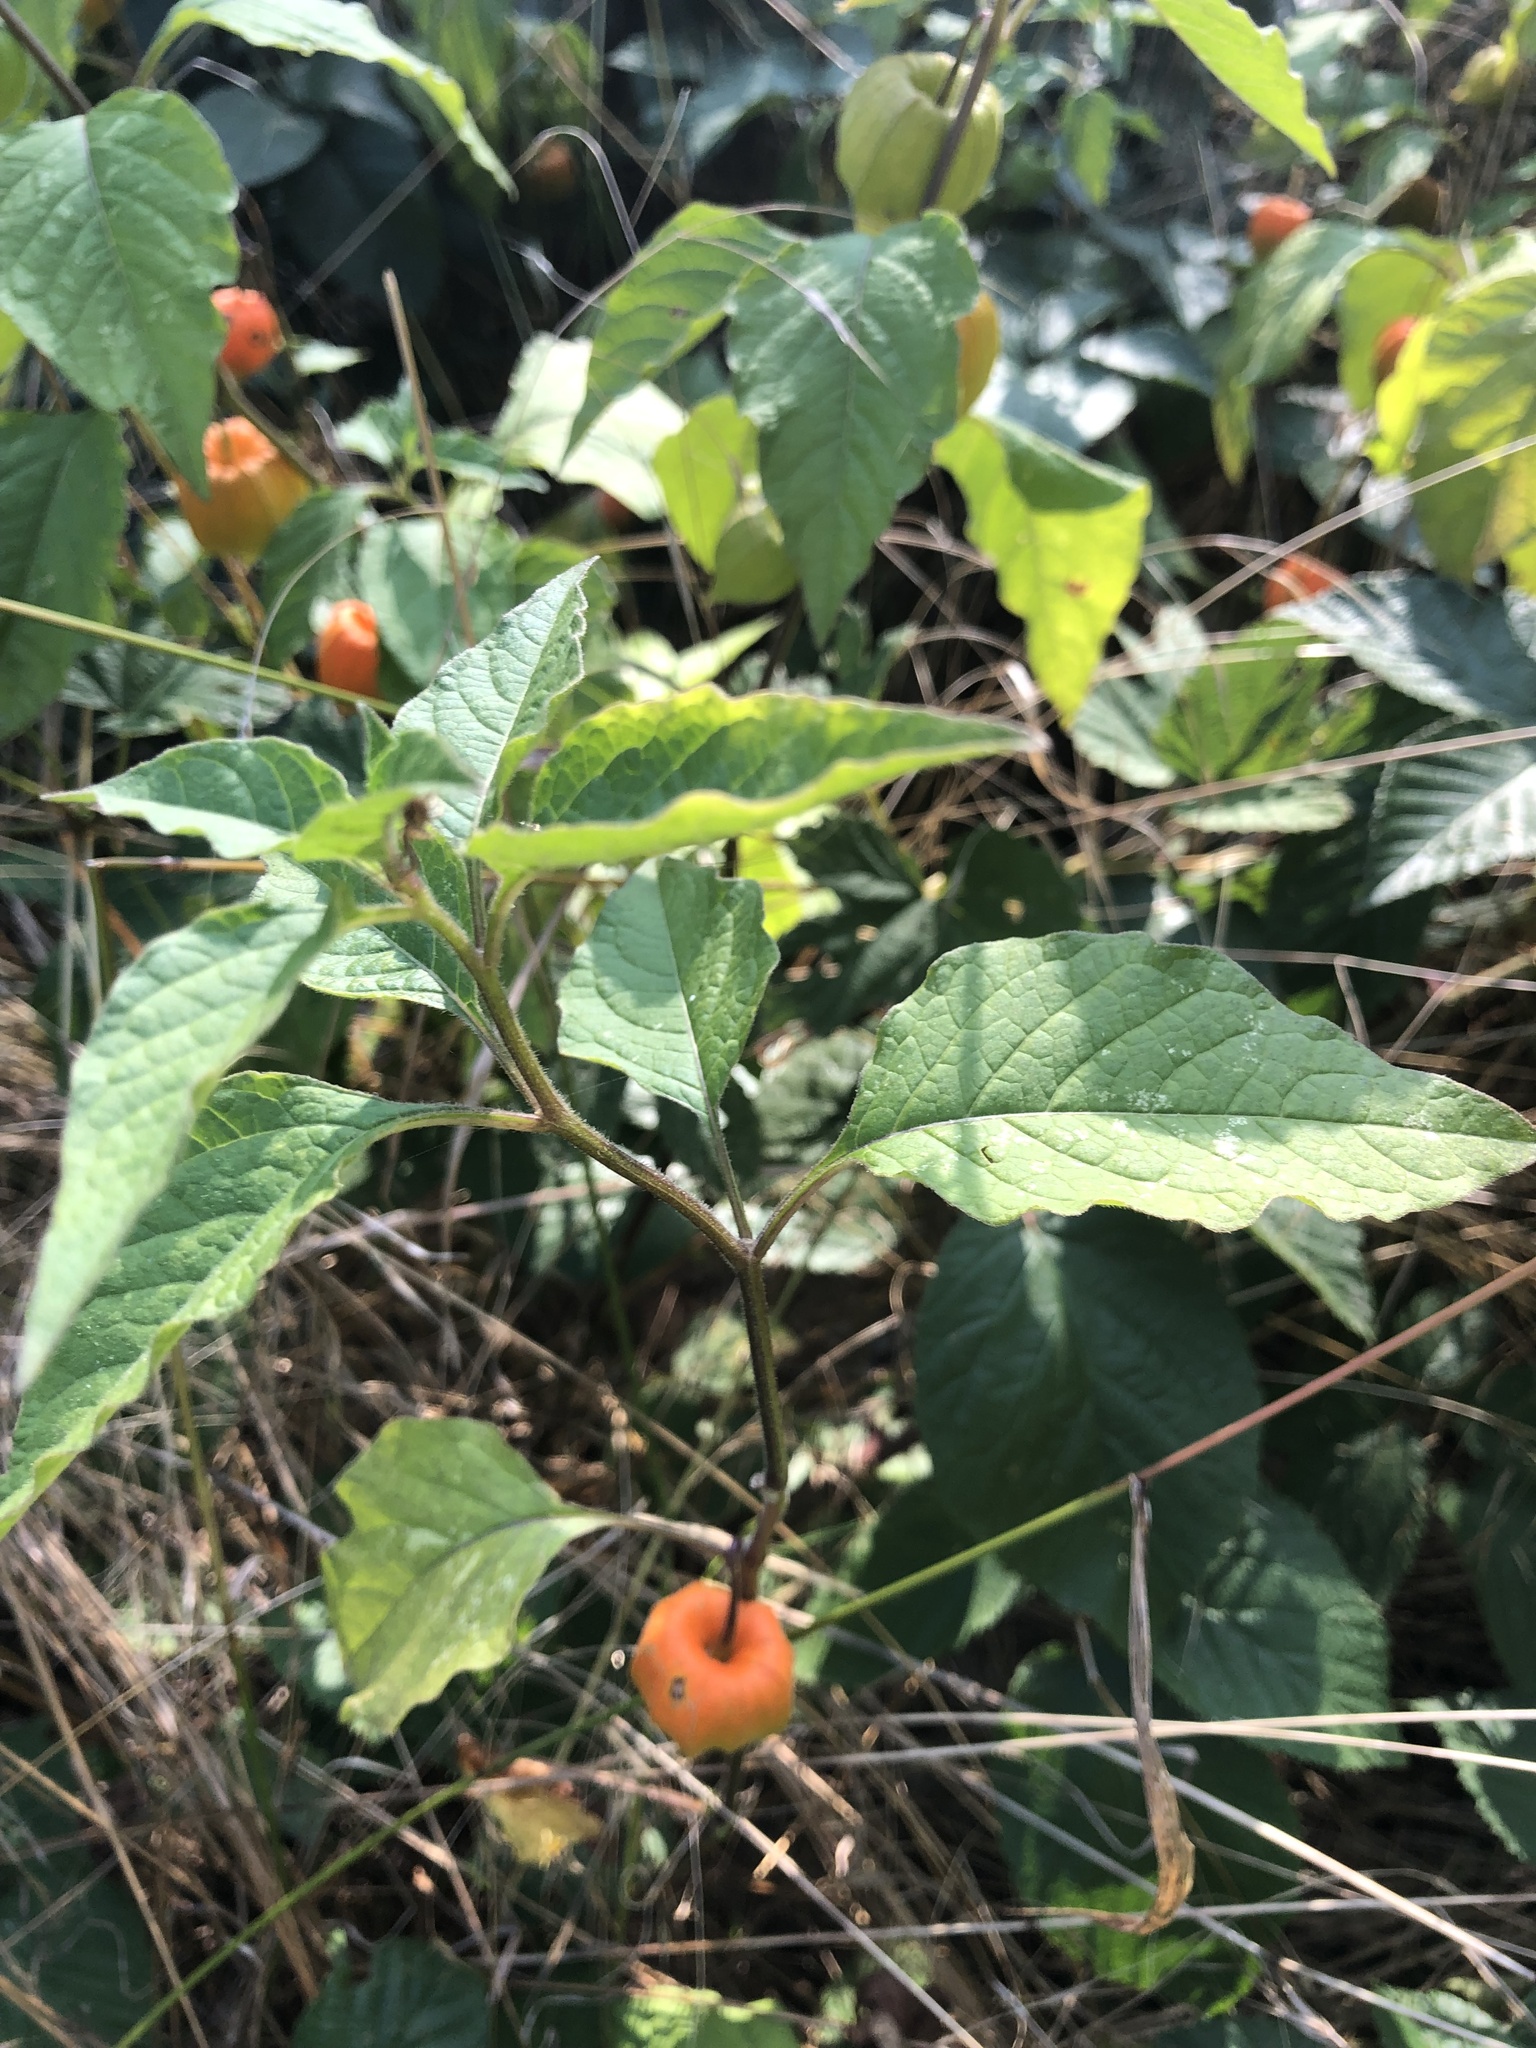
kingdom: Plantae
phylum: Tracheophyta
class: Magnoliopsida
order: Solanales
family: Solanaceae
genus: Alkekengi
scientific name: Alkekengi officinarum
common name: Japanese-lantern
